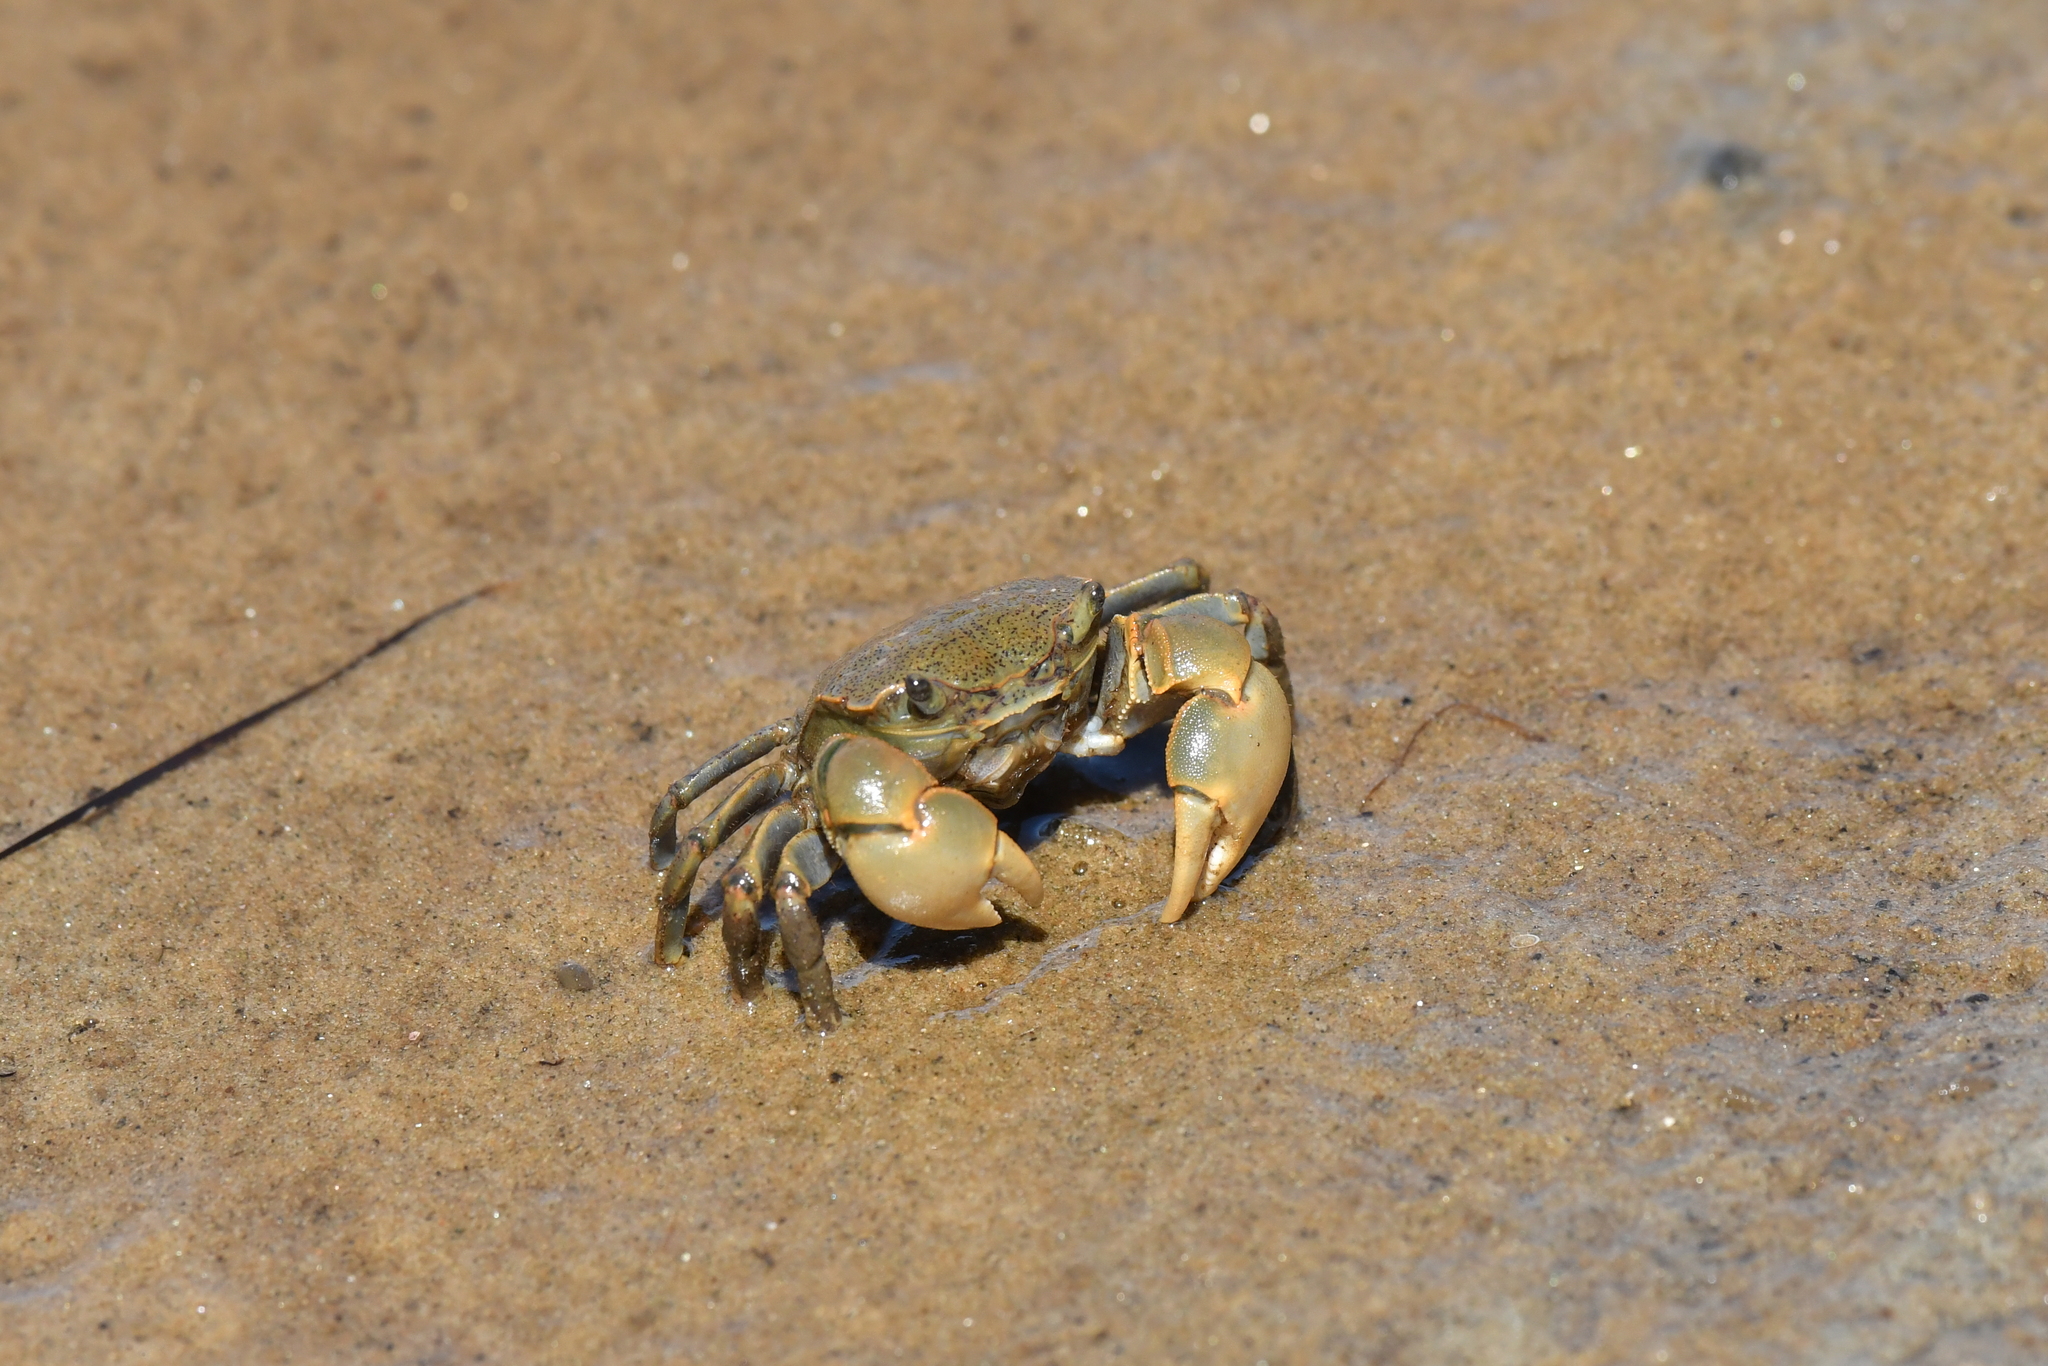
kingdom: Animalia
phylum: Arthropoda
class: Malacostraca
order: Decapoda
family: Varunidae
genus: Austrohelice
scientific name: Austrohelice crassa
